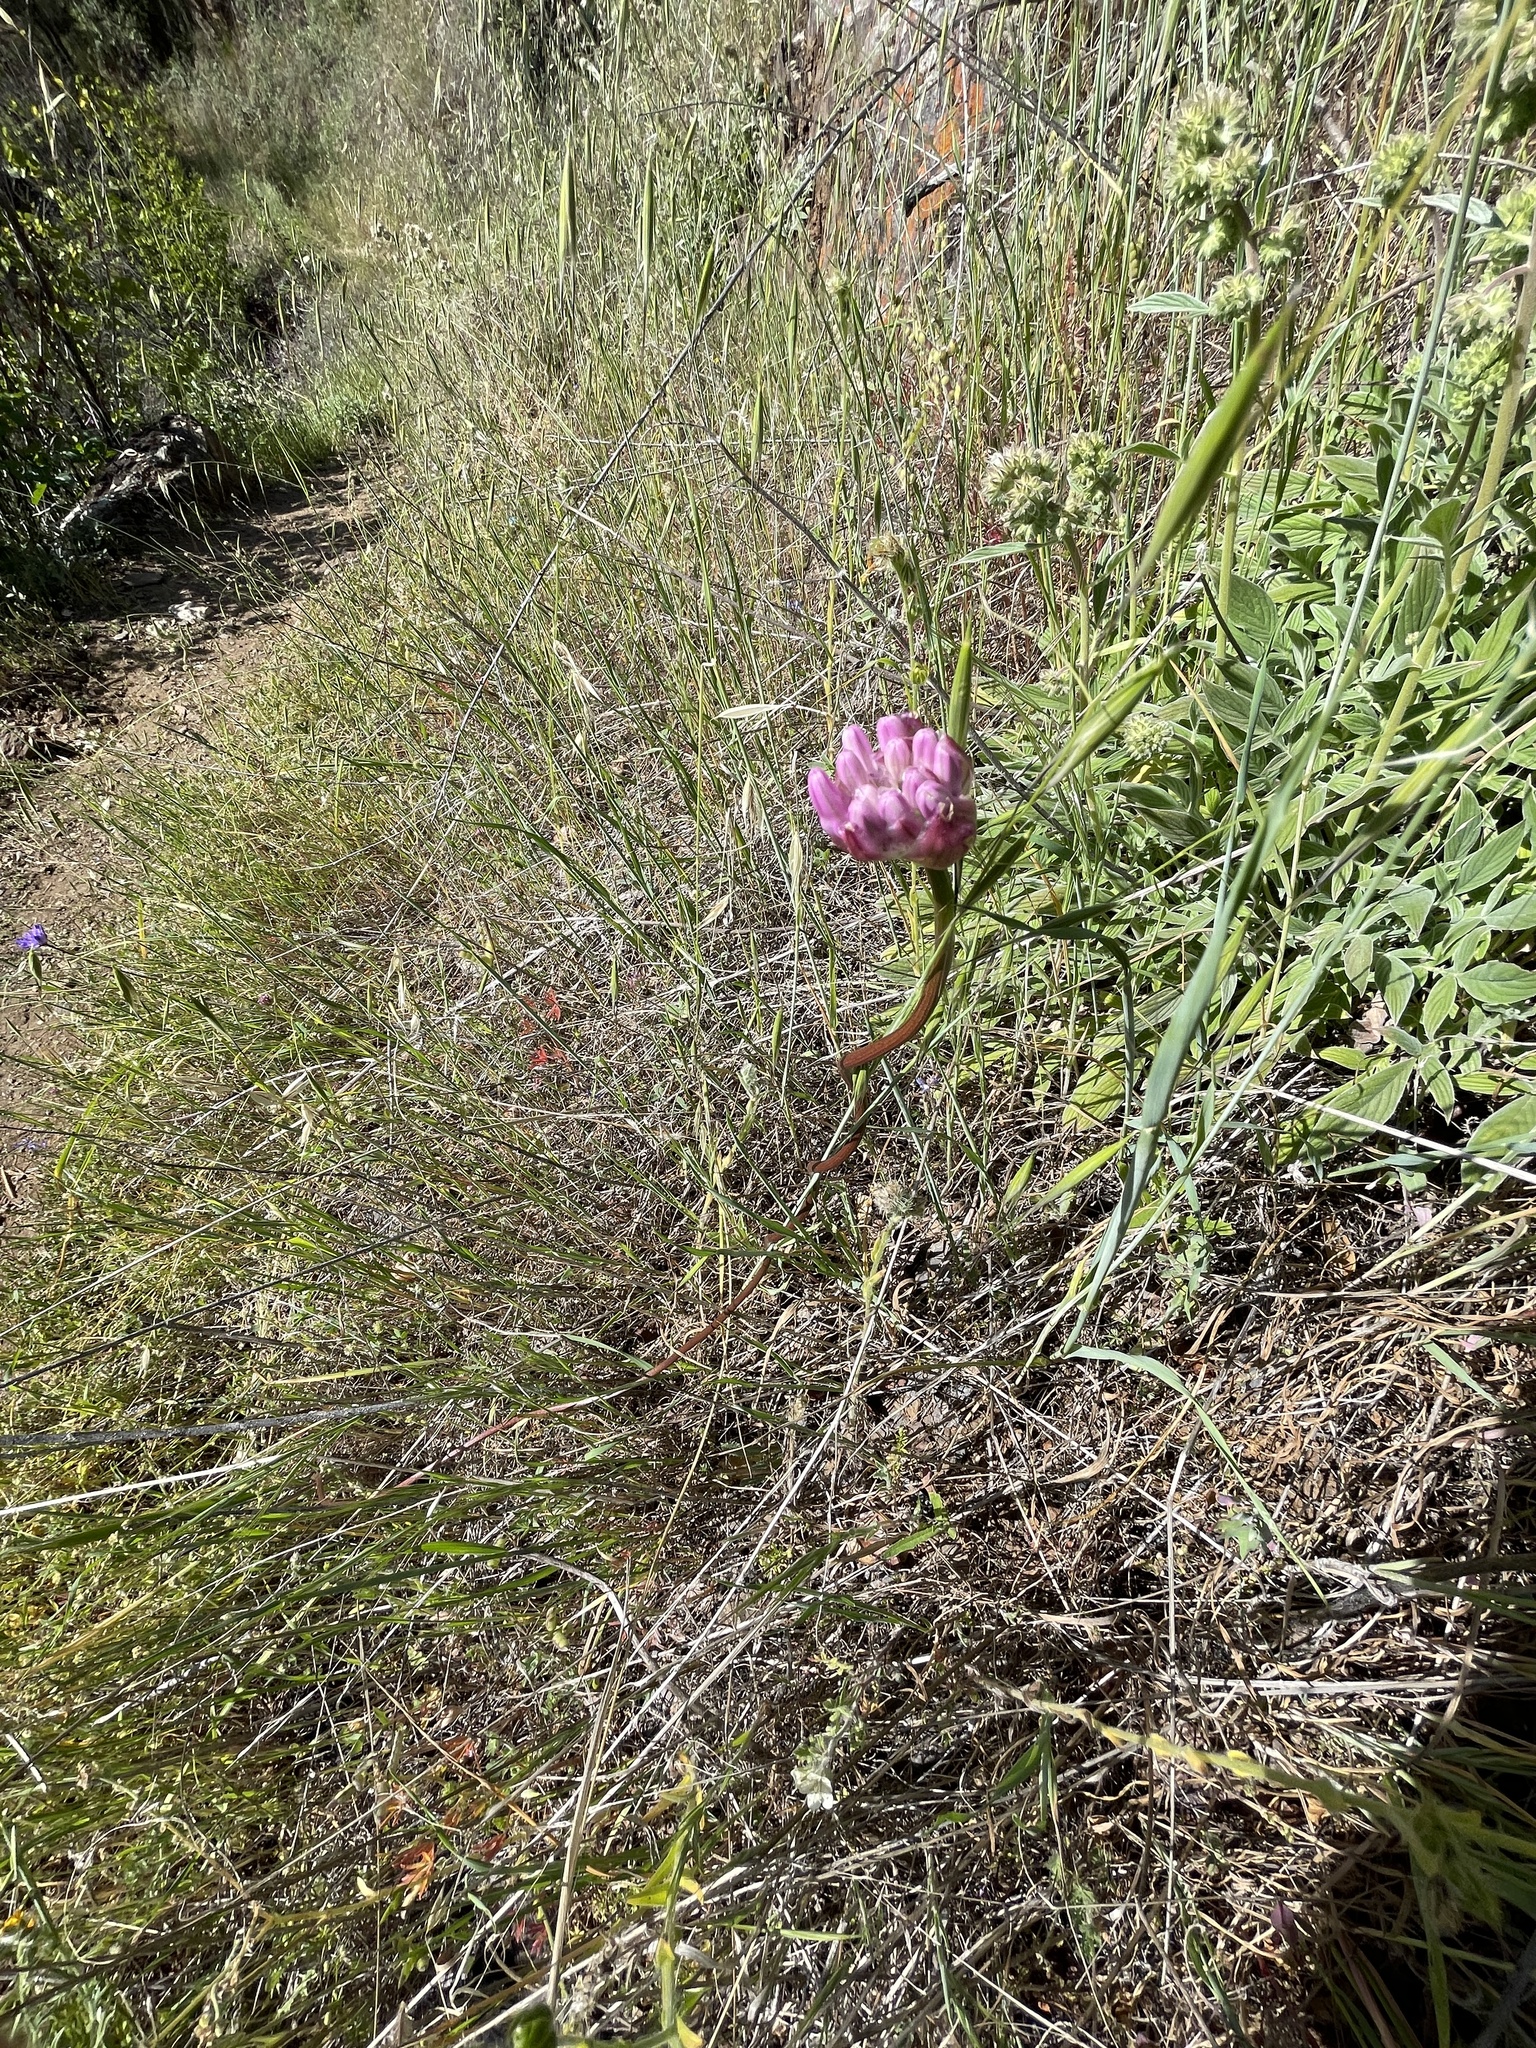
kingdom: Plantae
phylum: Tracheophyta
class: Liliopsida
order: Asparagales
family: Asparagaceae
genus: Dichelostemma
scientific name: Dichelostemma volubile
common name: Trining brodiaea
